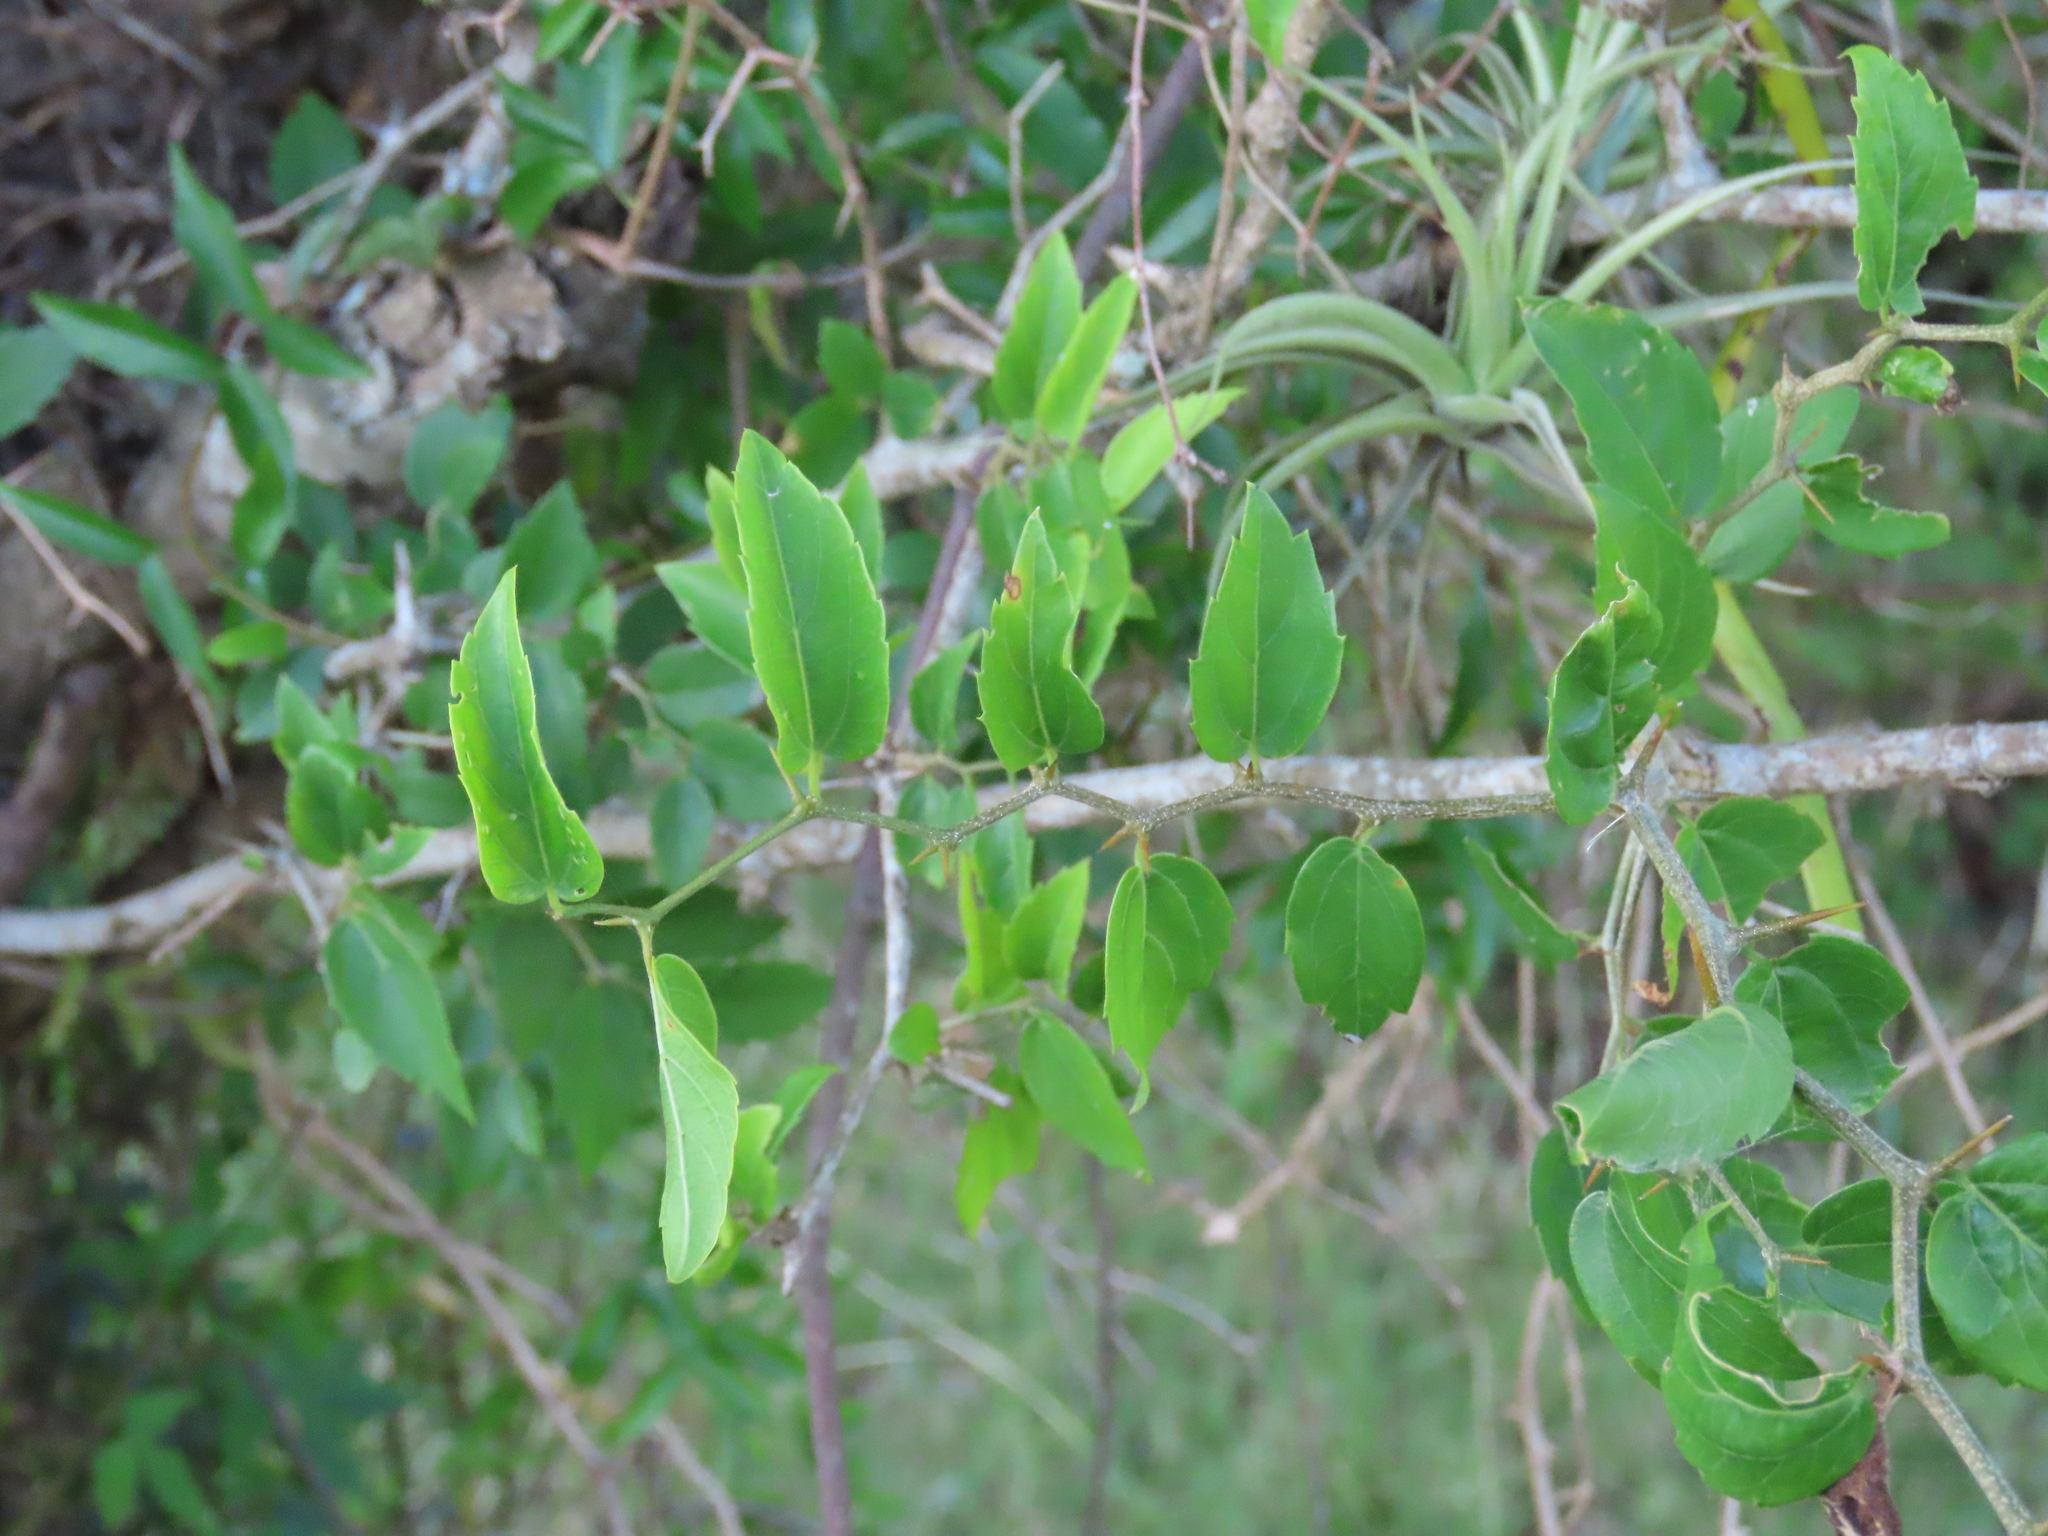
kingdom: Plantae
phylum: Tracheophyta
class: Magnoliopsida
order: Rosales
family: Cannabaceae
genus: Celtis
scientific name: Celtis tala
